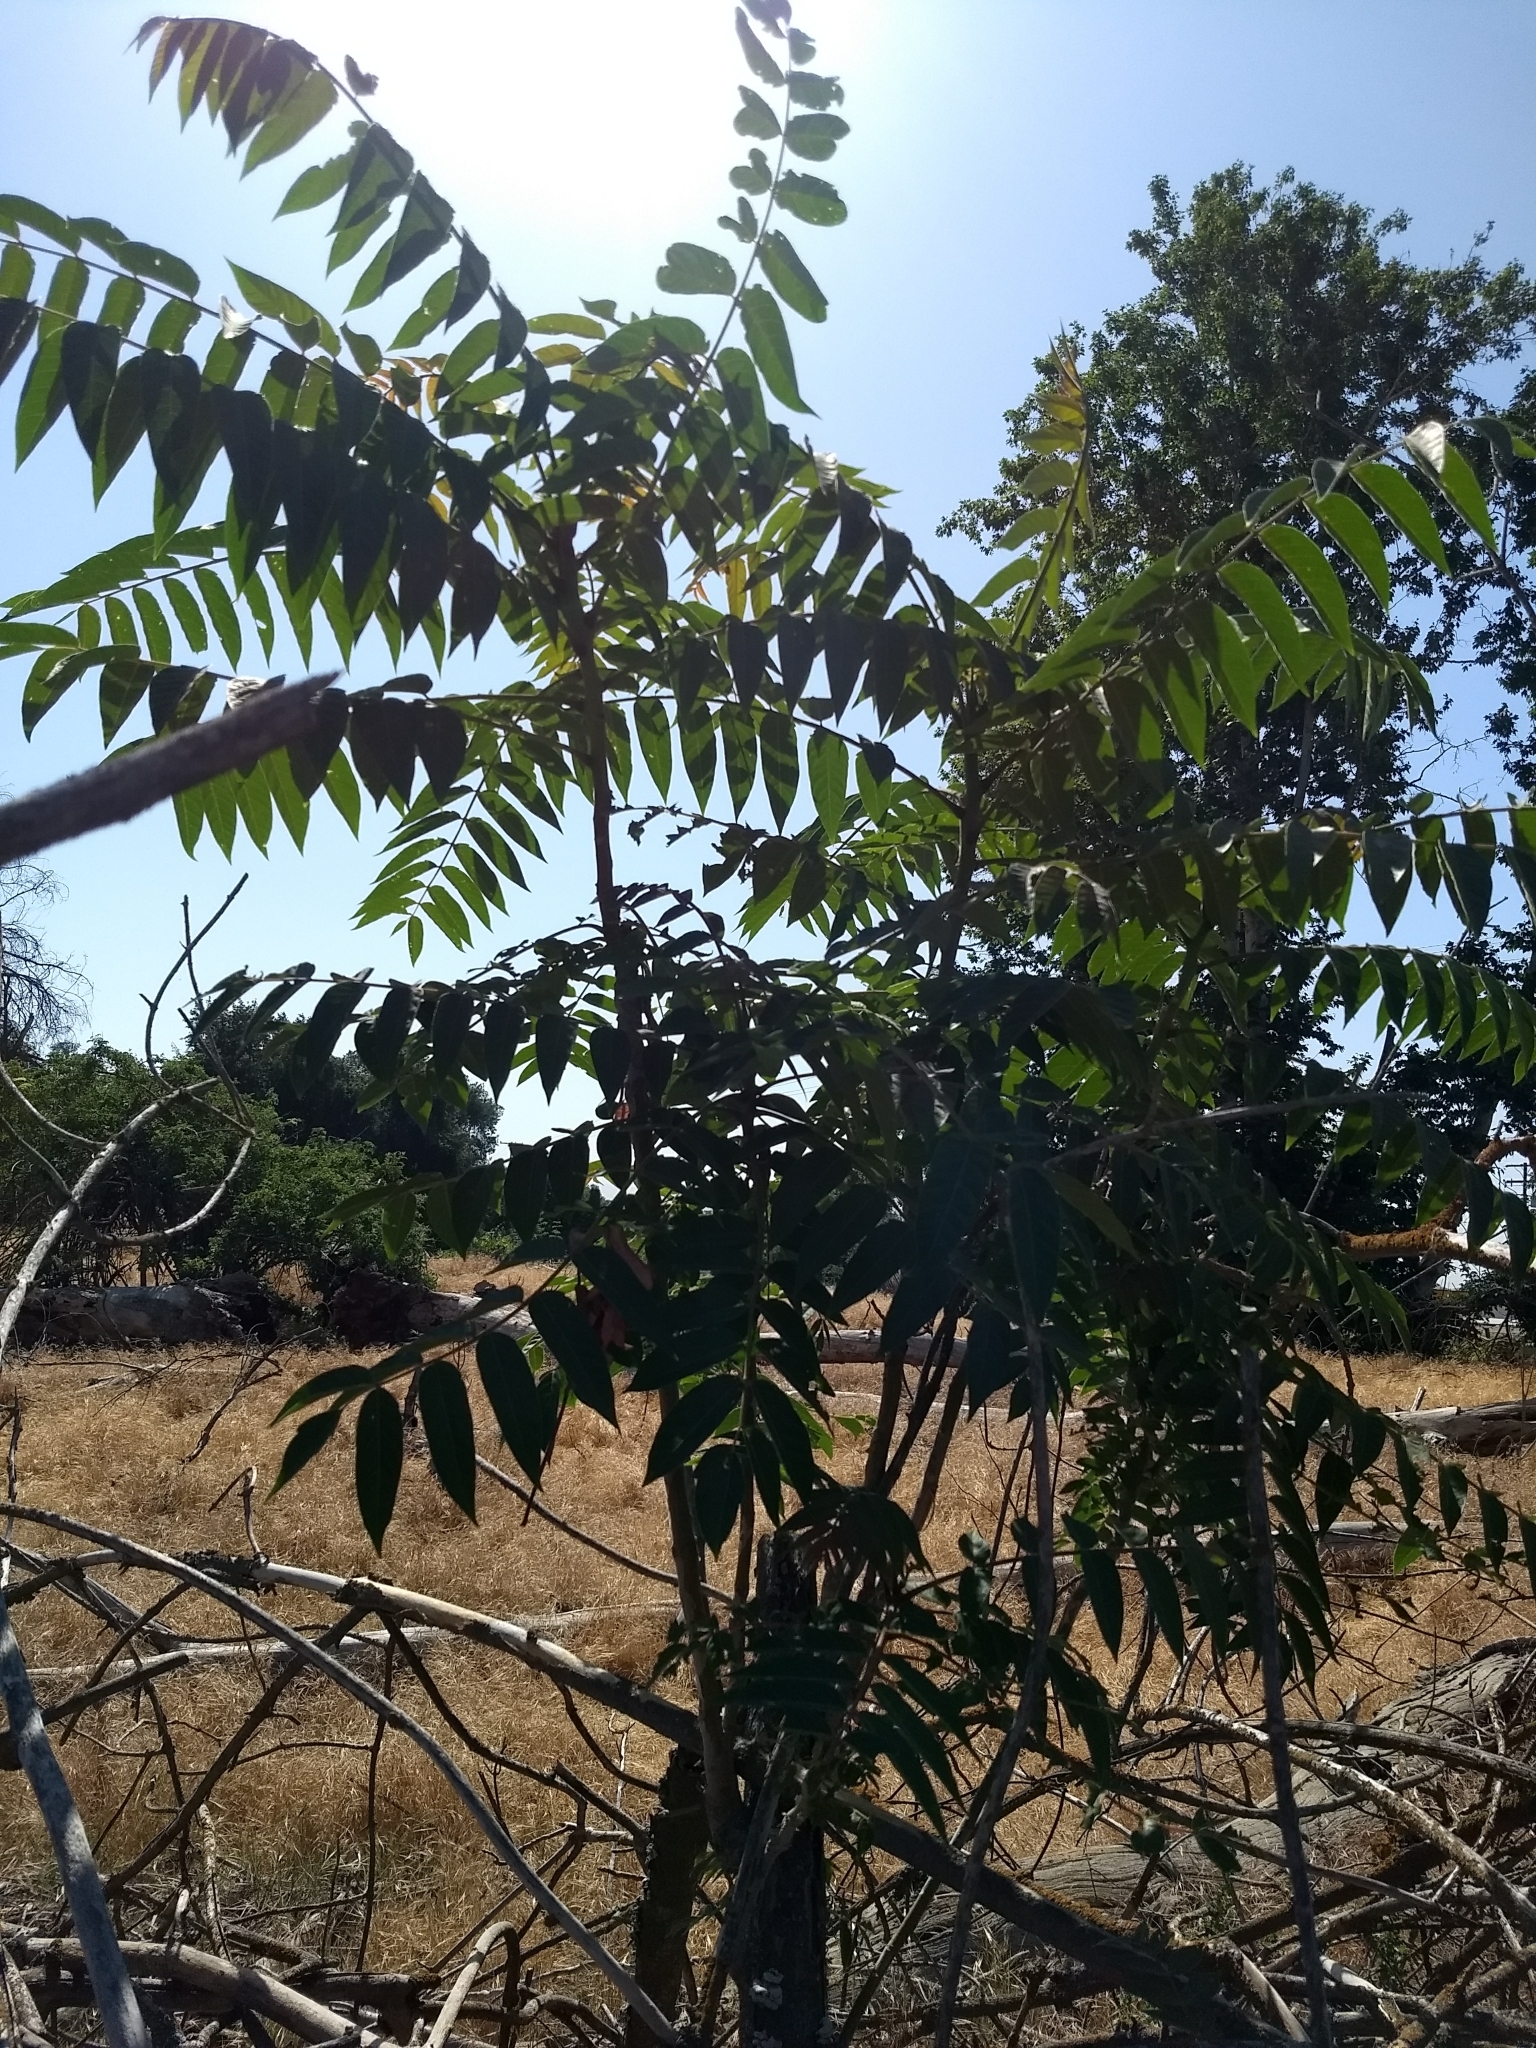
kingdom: Plantae
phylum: Tracheophyta
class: Magnoliopsida
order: Sapindales
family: Simaroubaceae
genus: Ailanthus
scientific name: Ailanthus altissima
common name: Tree-of-heaven
